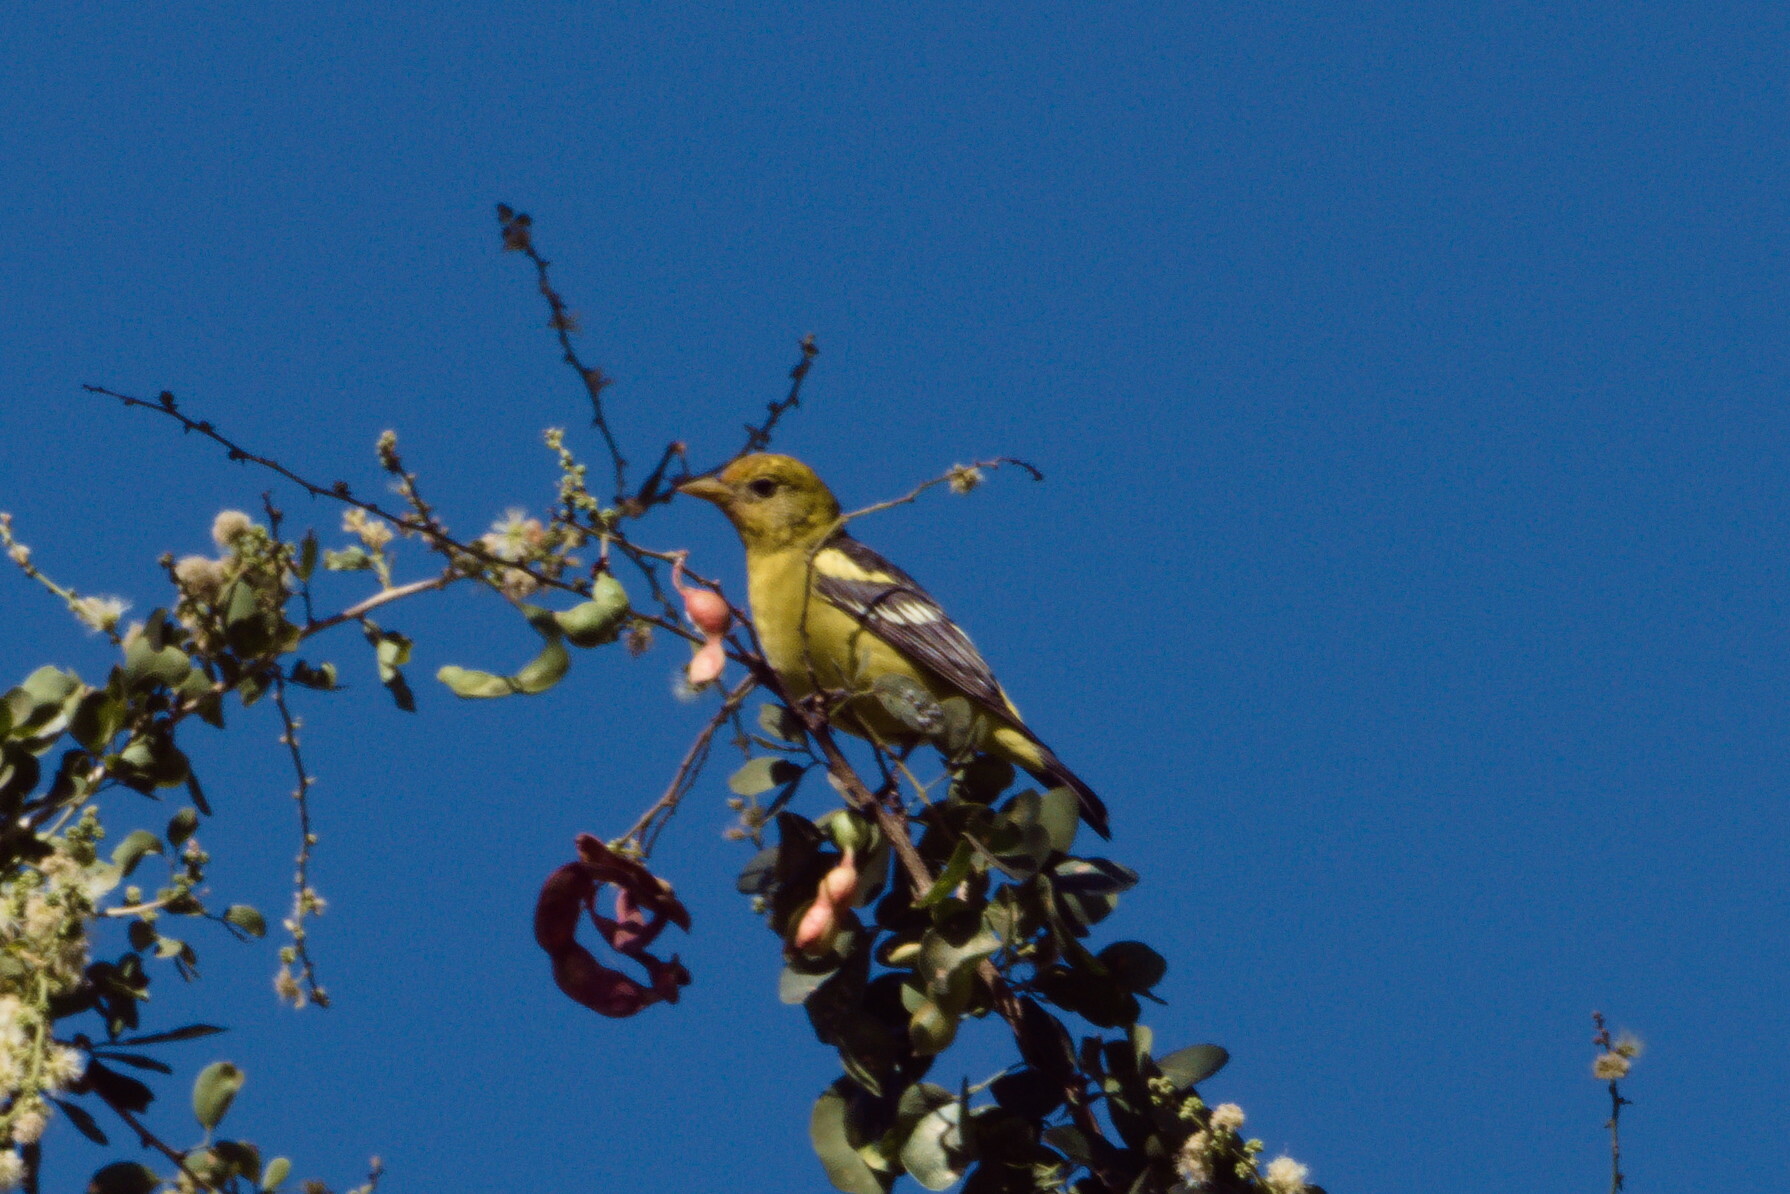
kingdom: Animalia
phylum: Chordata
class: Aves
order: Passeriformes
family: Cardinalidae
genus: Piranga
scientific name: Piranga ludoviciana
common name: Western tanager
